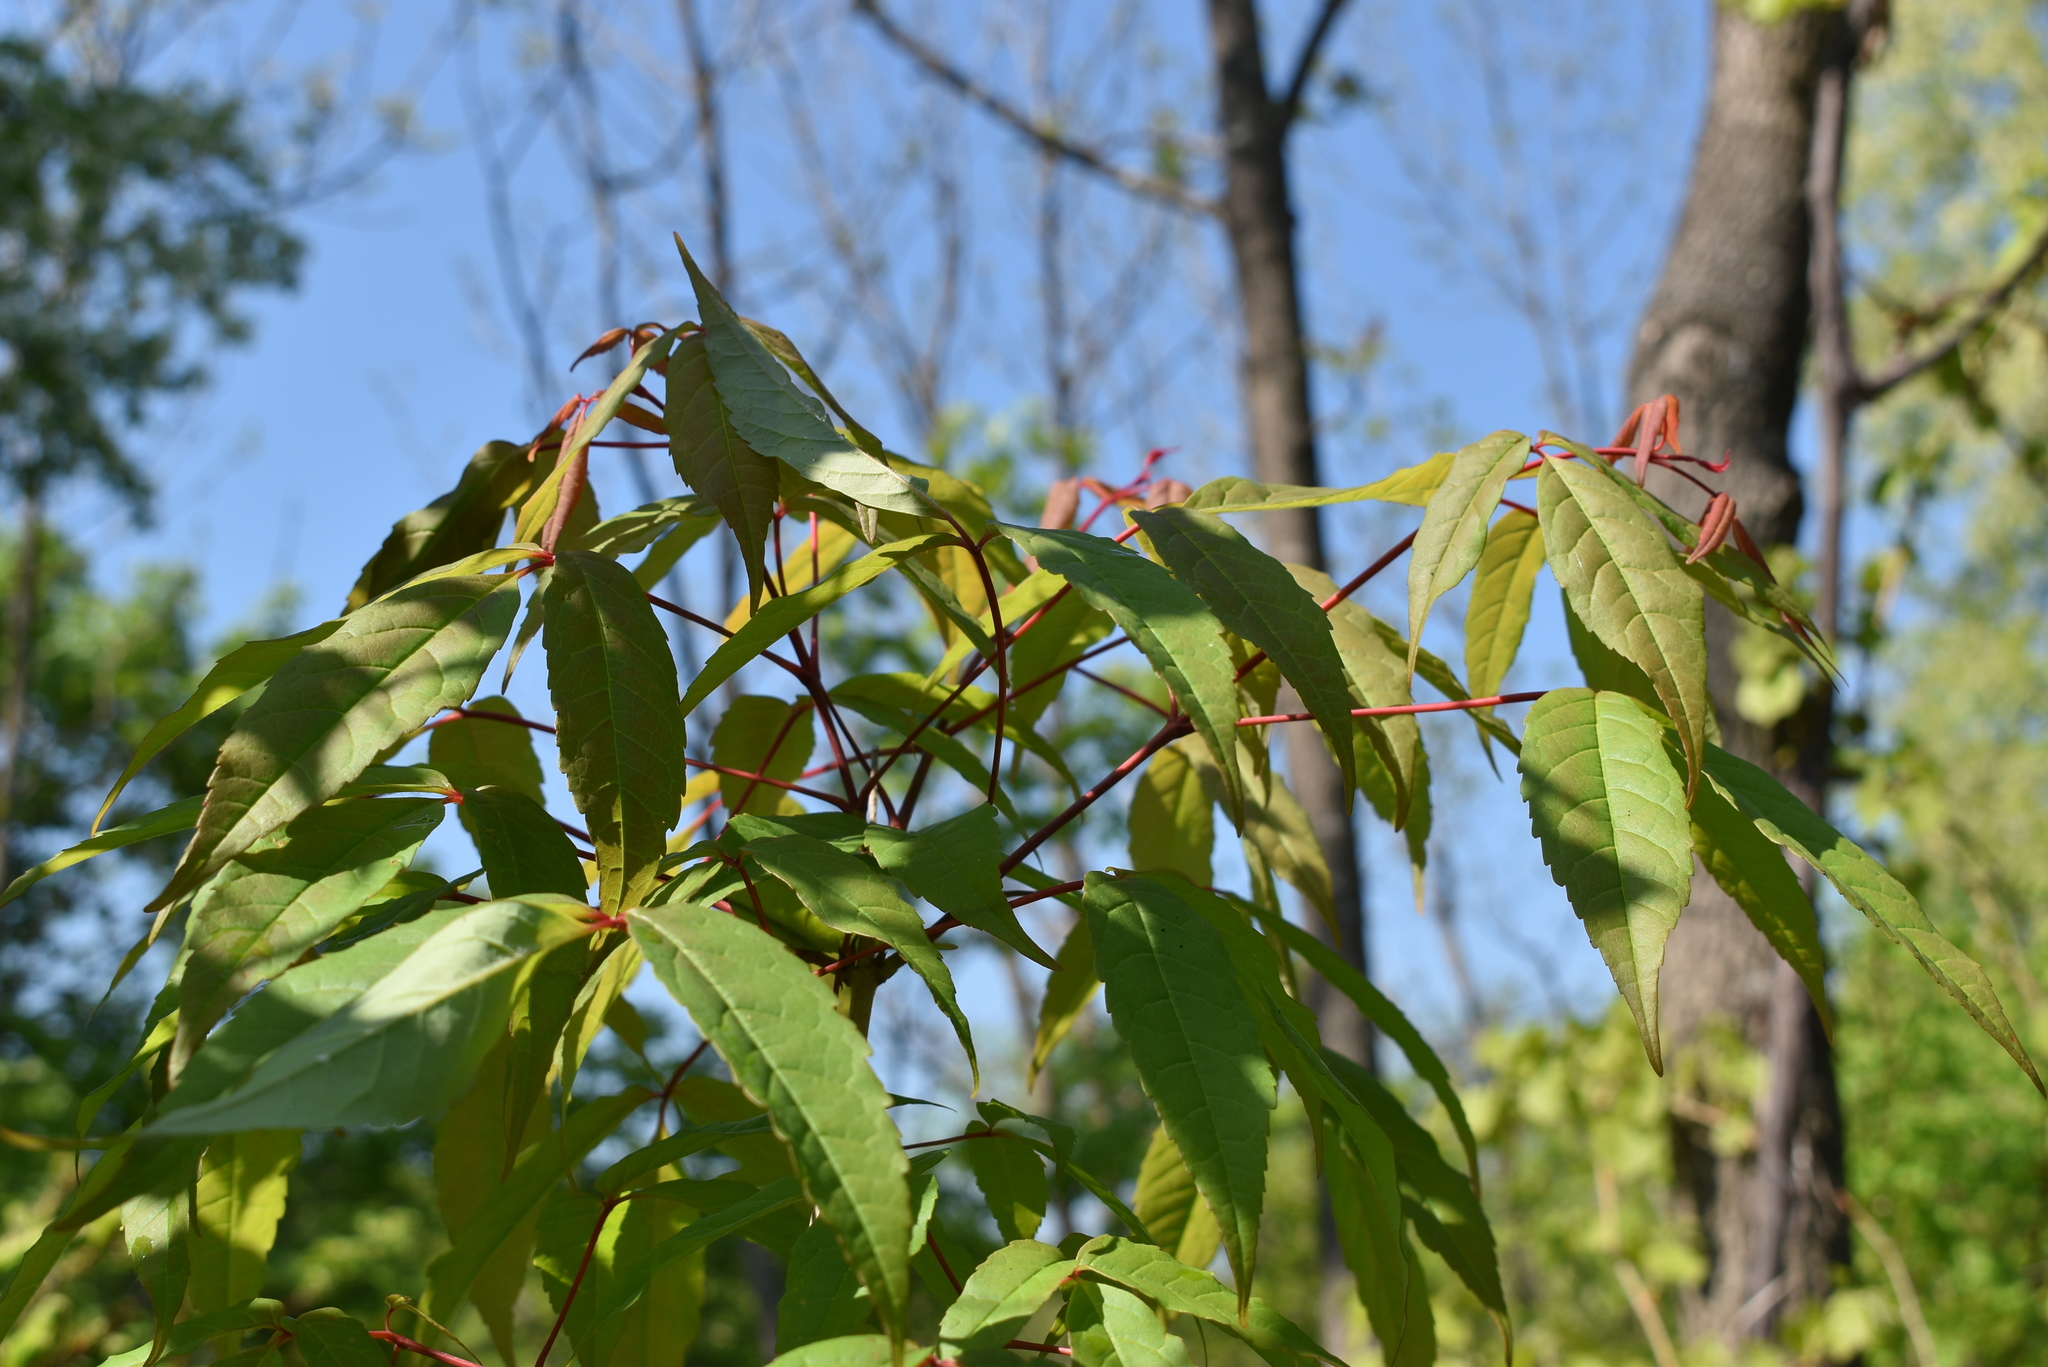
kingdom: Plantae
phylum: Tracheophyta
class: Magnoliopsida
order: Sapindales
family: Sapindaceae
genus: Acer
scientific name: Acer mandshuricum
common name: Manchurian maple
